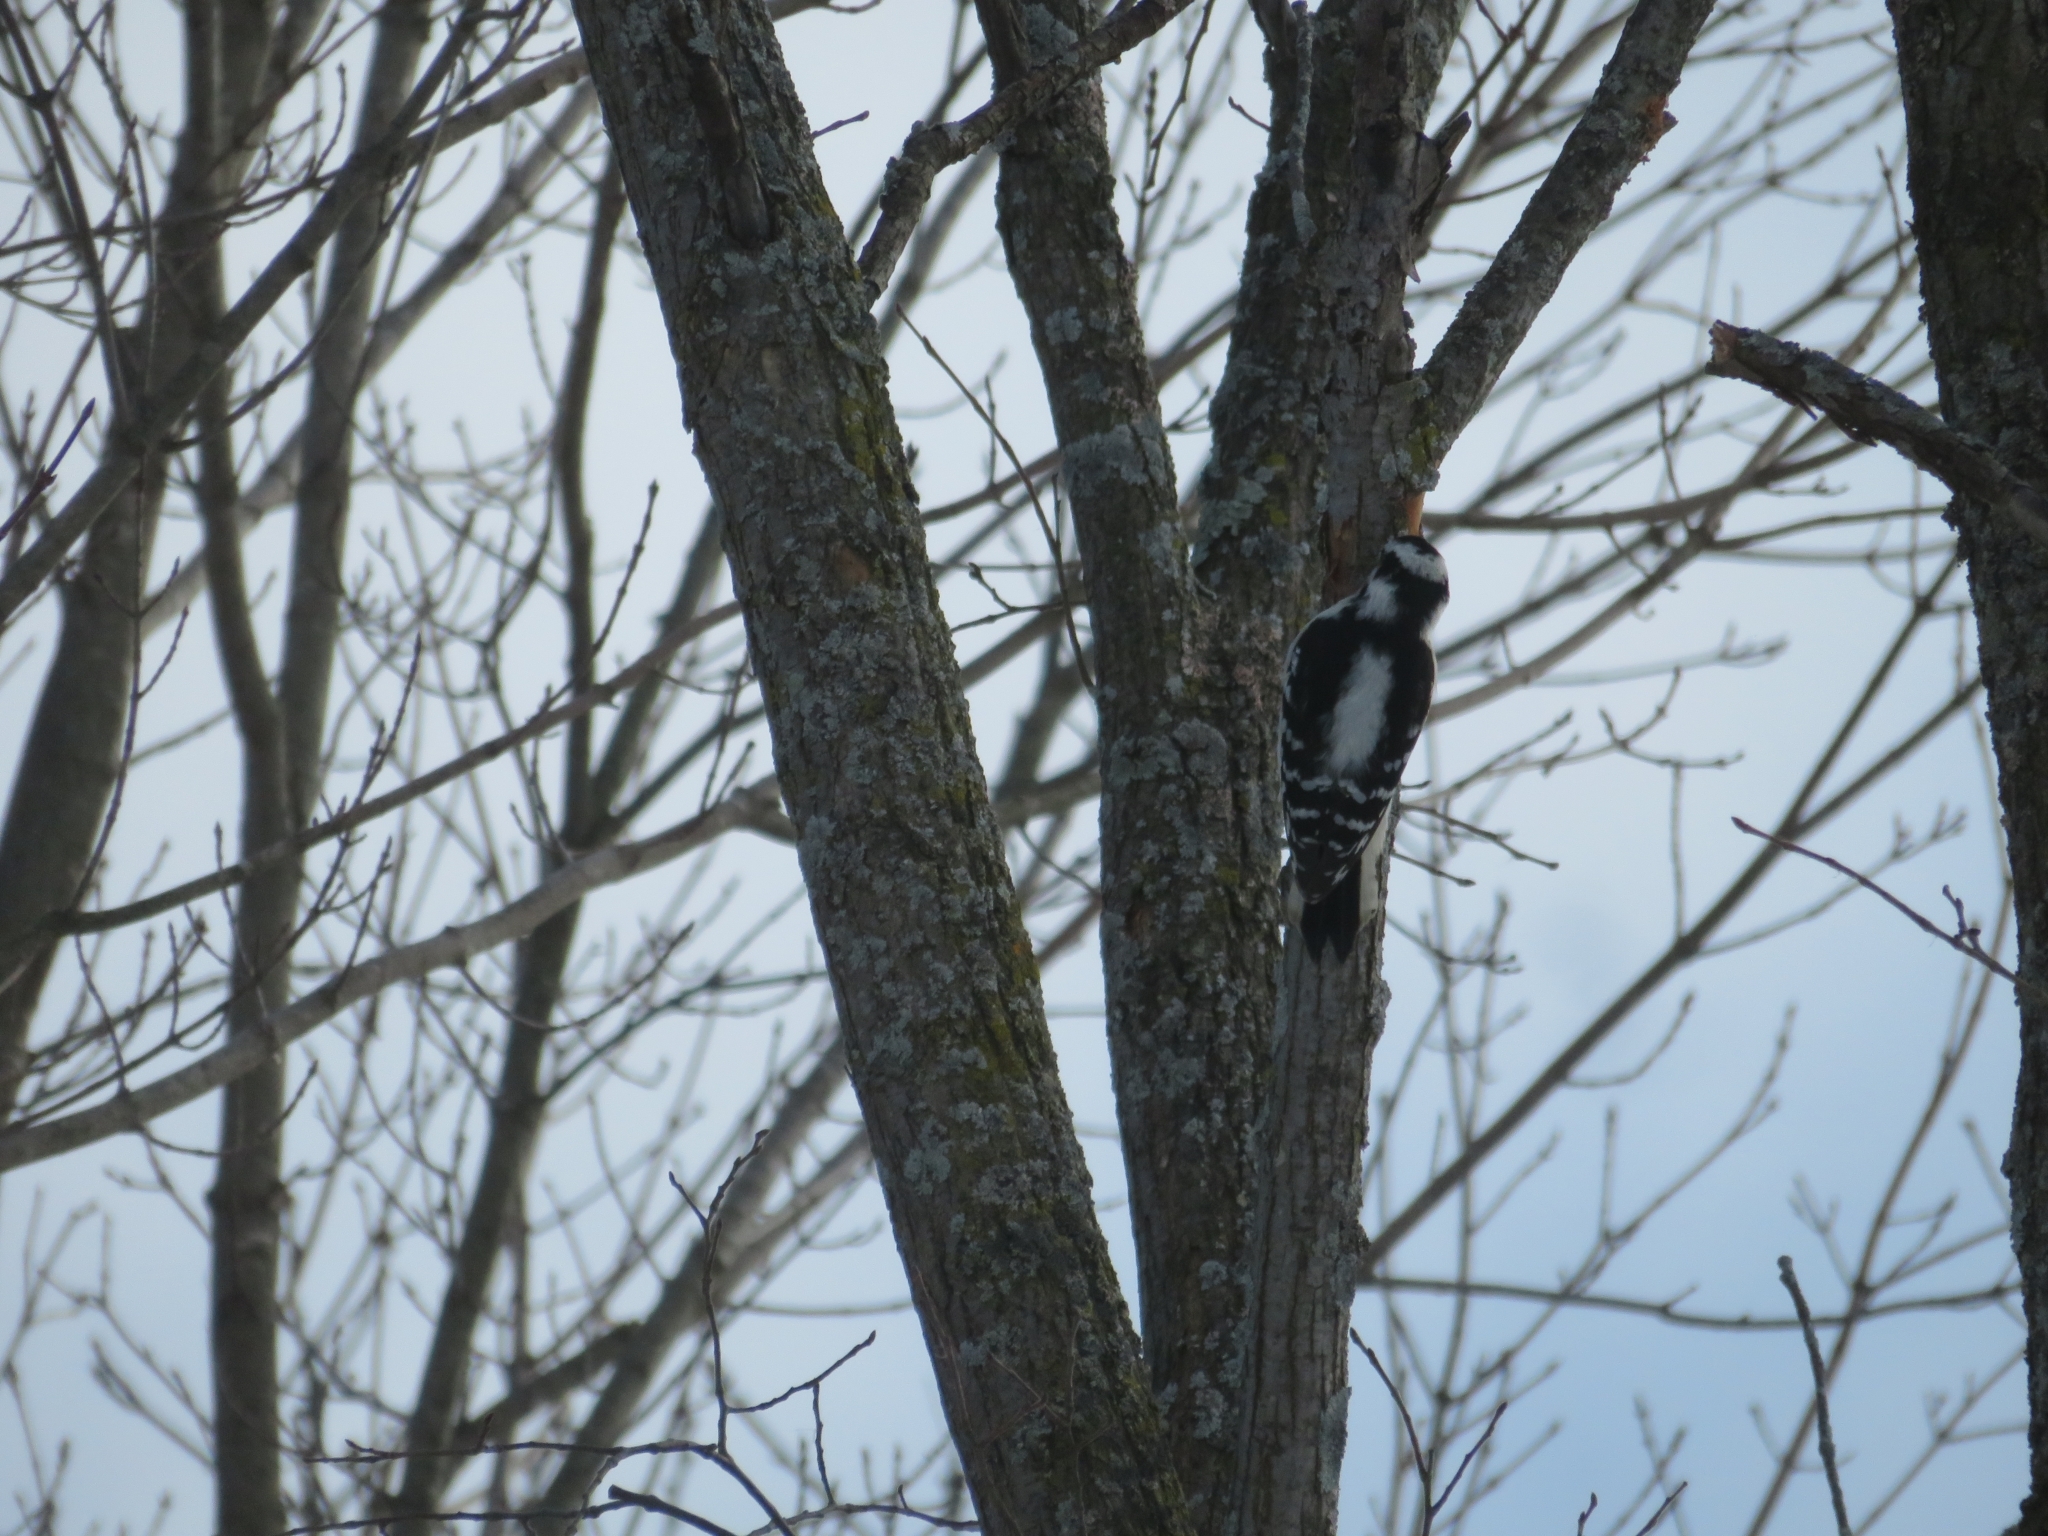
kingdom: Animalia
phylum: Chordata
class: Aves
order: Piciformes
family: Picidae
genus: Dryobates
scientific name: Dryobates pubescens
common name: Downy woodpecker
